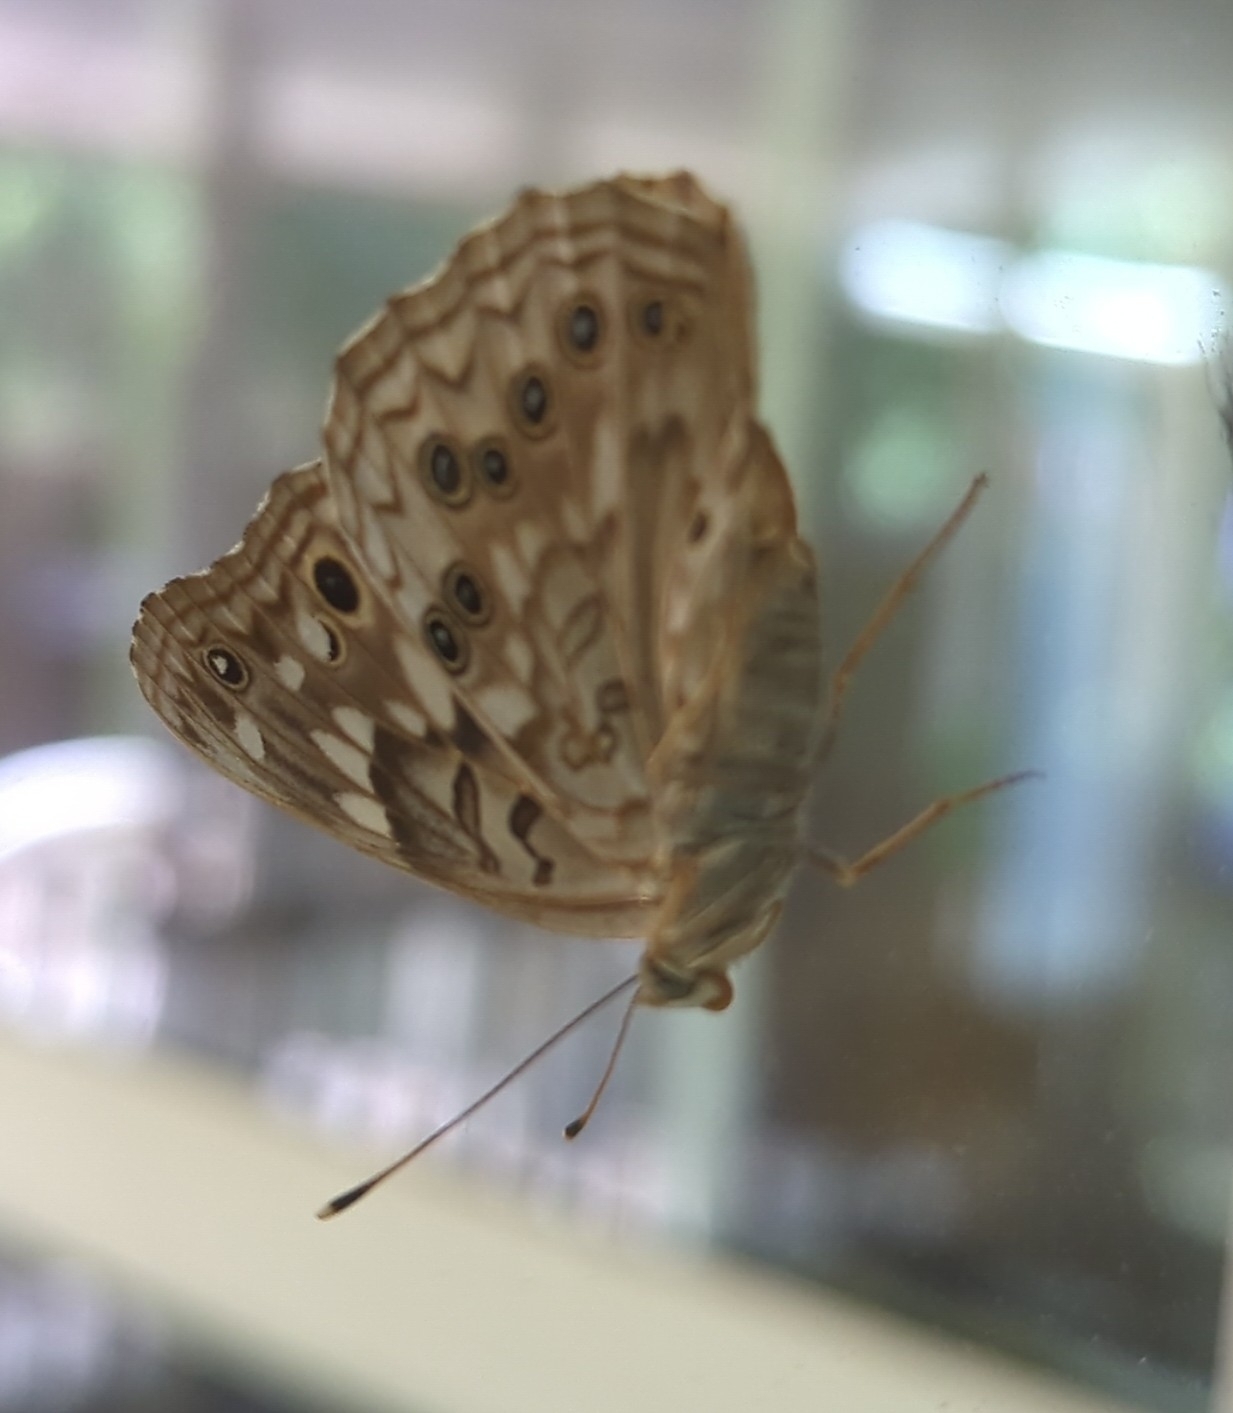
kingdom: Animalia
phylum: Arthropoda
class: Insecta
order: Lepidoptera
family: Nymphalidae
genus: Asterocampa
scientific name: Asterocampa celtis
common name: Hackberry emperor
